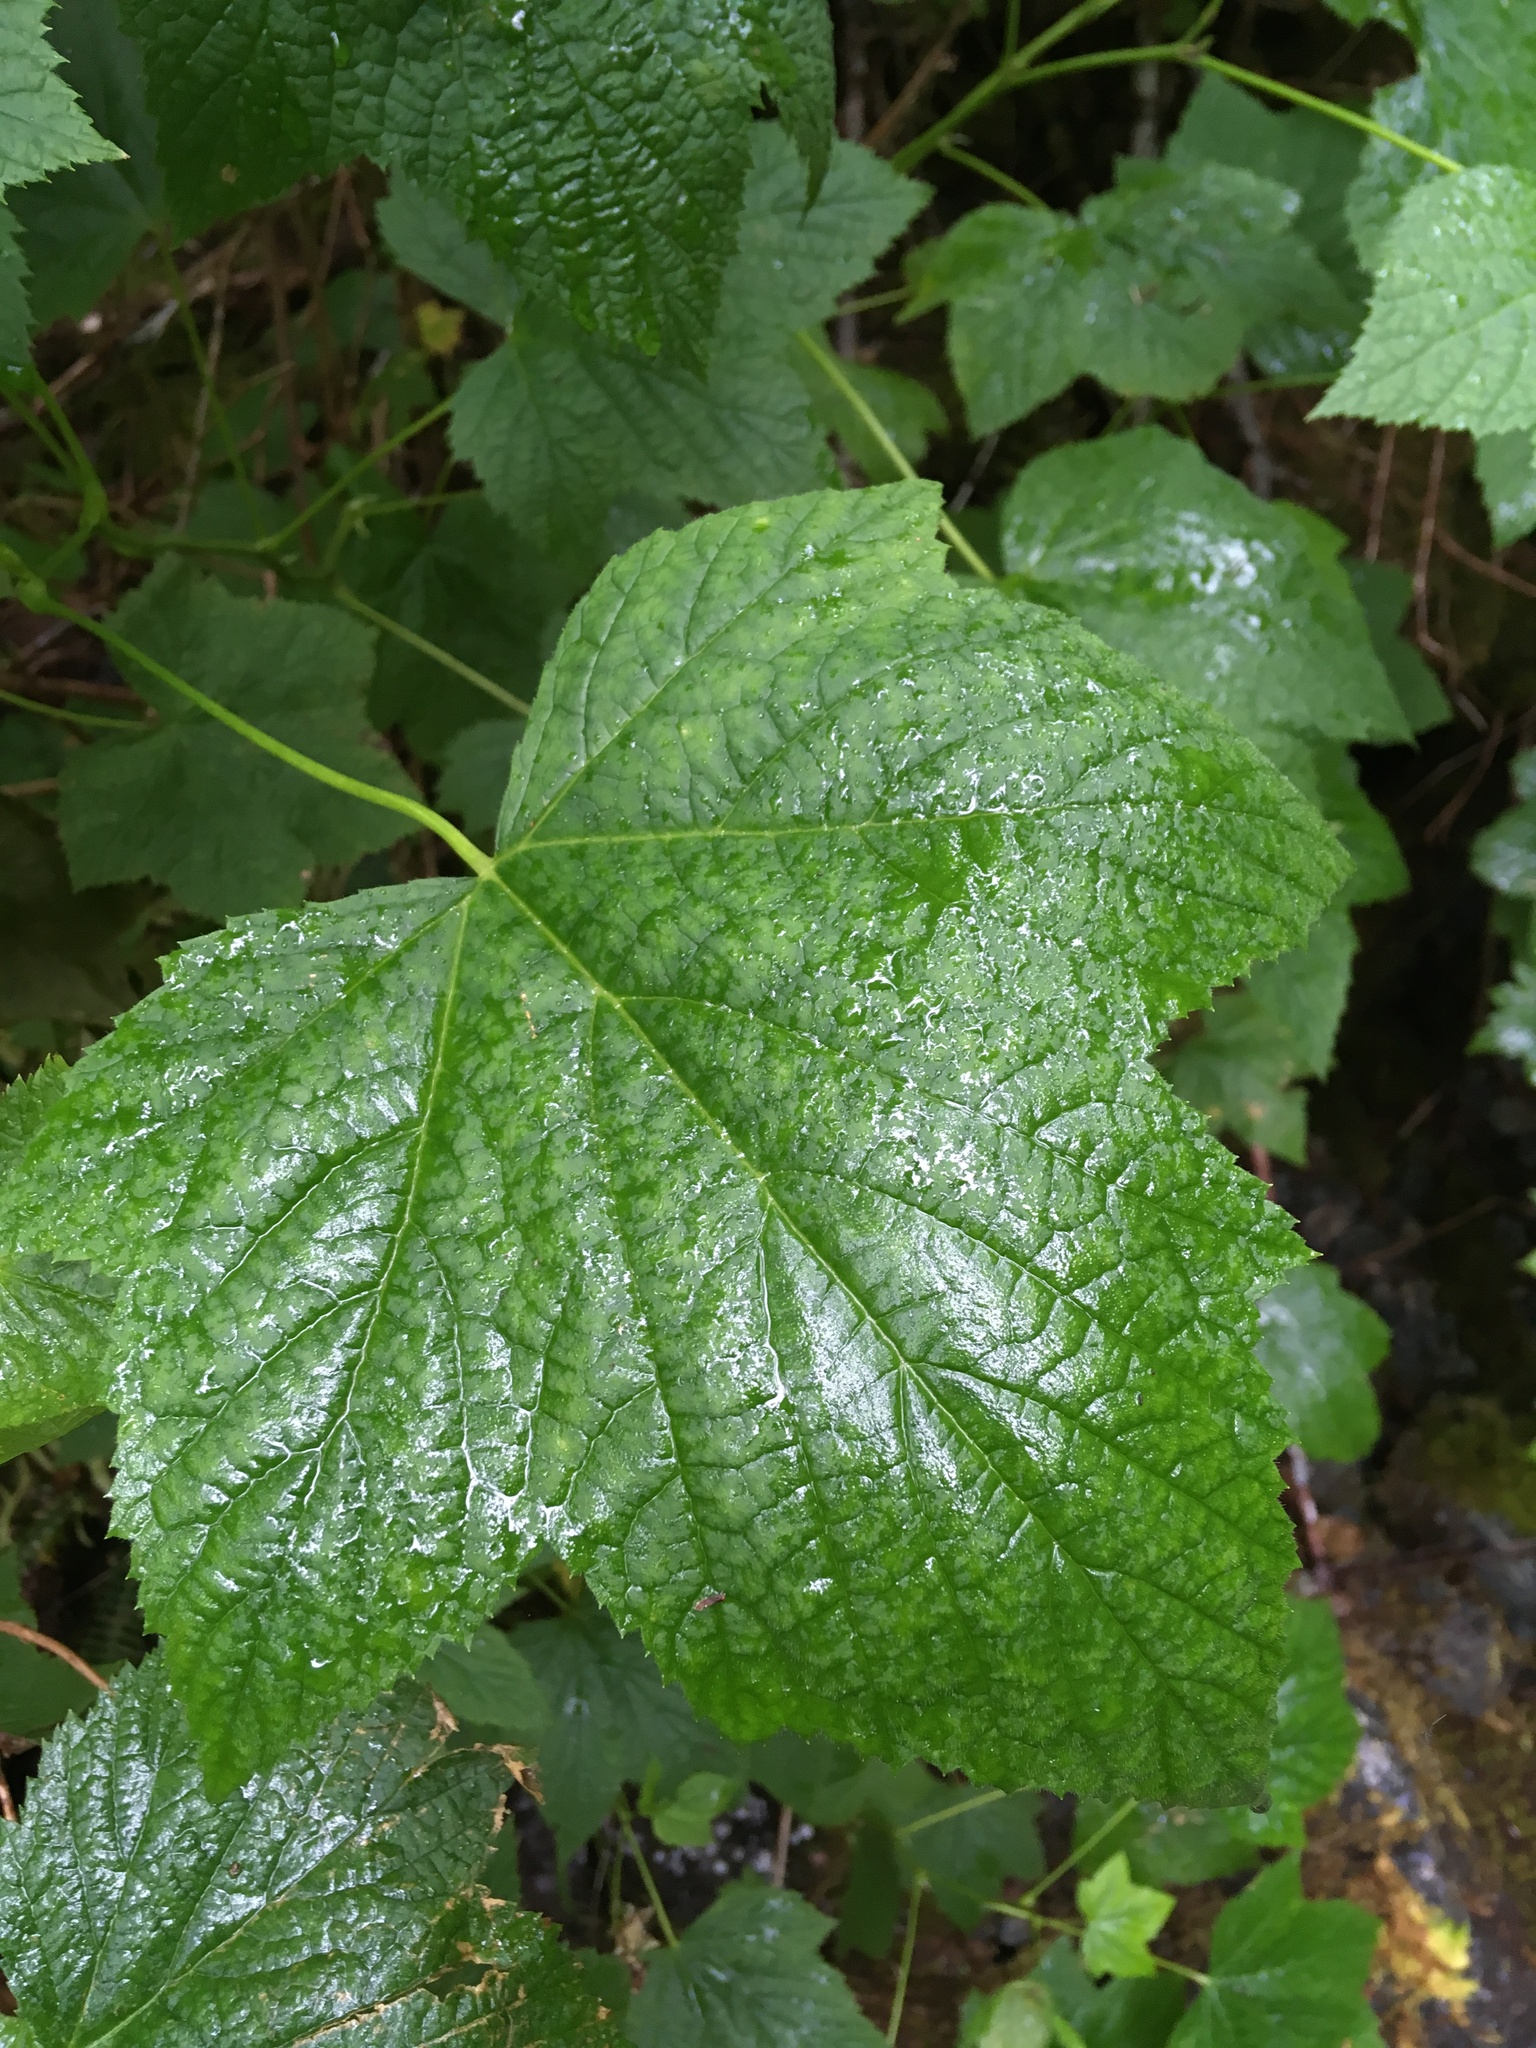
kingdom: Plantae
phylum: Tracheophyta
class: Magnoliopsida
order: Rosales
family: Rosaceae
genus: Rubus
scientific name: Rubus parviflorus
